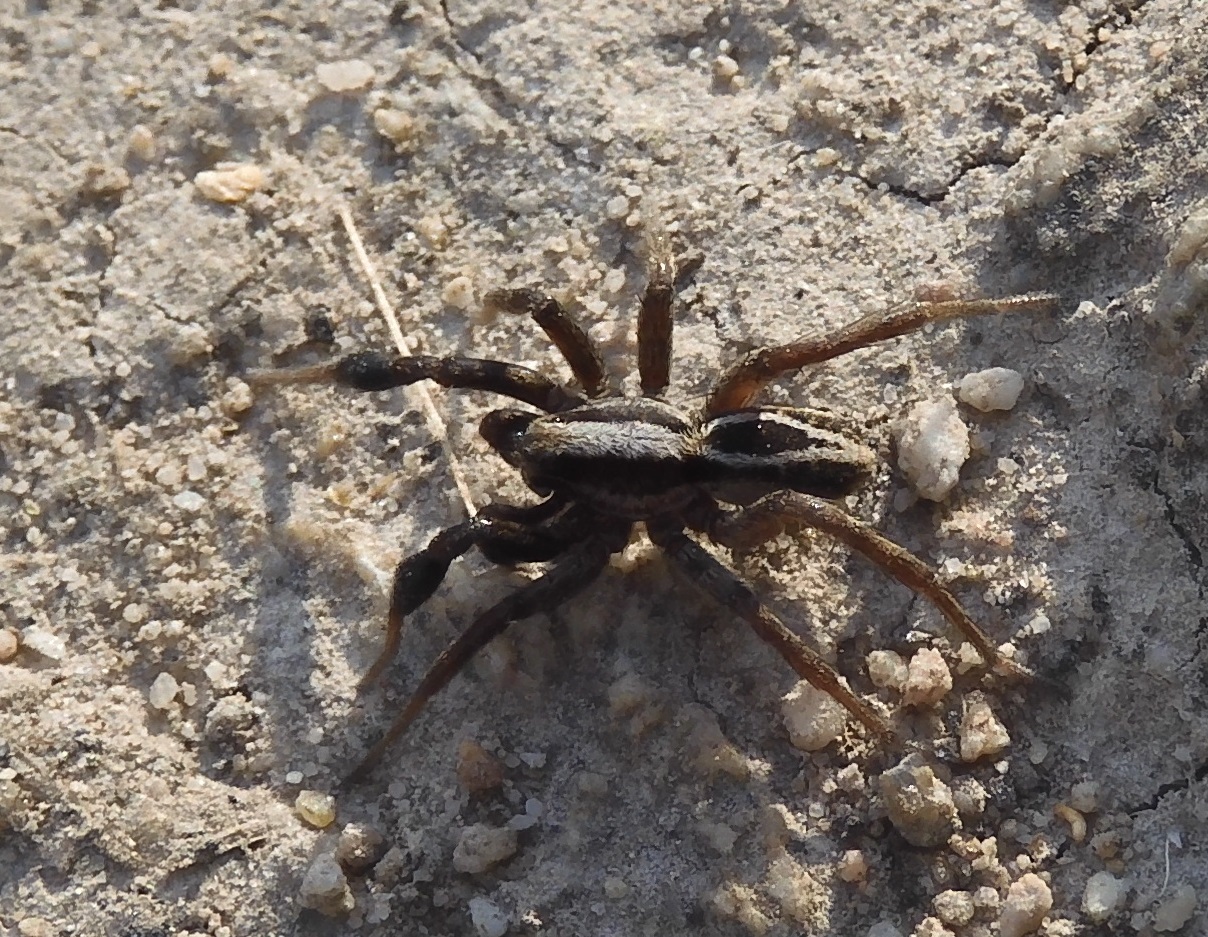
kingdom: Animalia
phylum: Arthropoda
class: Arachnida
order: Araneae
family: Lycosidae
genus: Alopecosa
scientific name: Alopecosa cuneata
